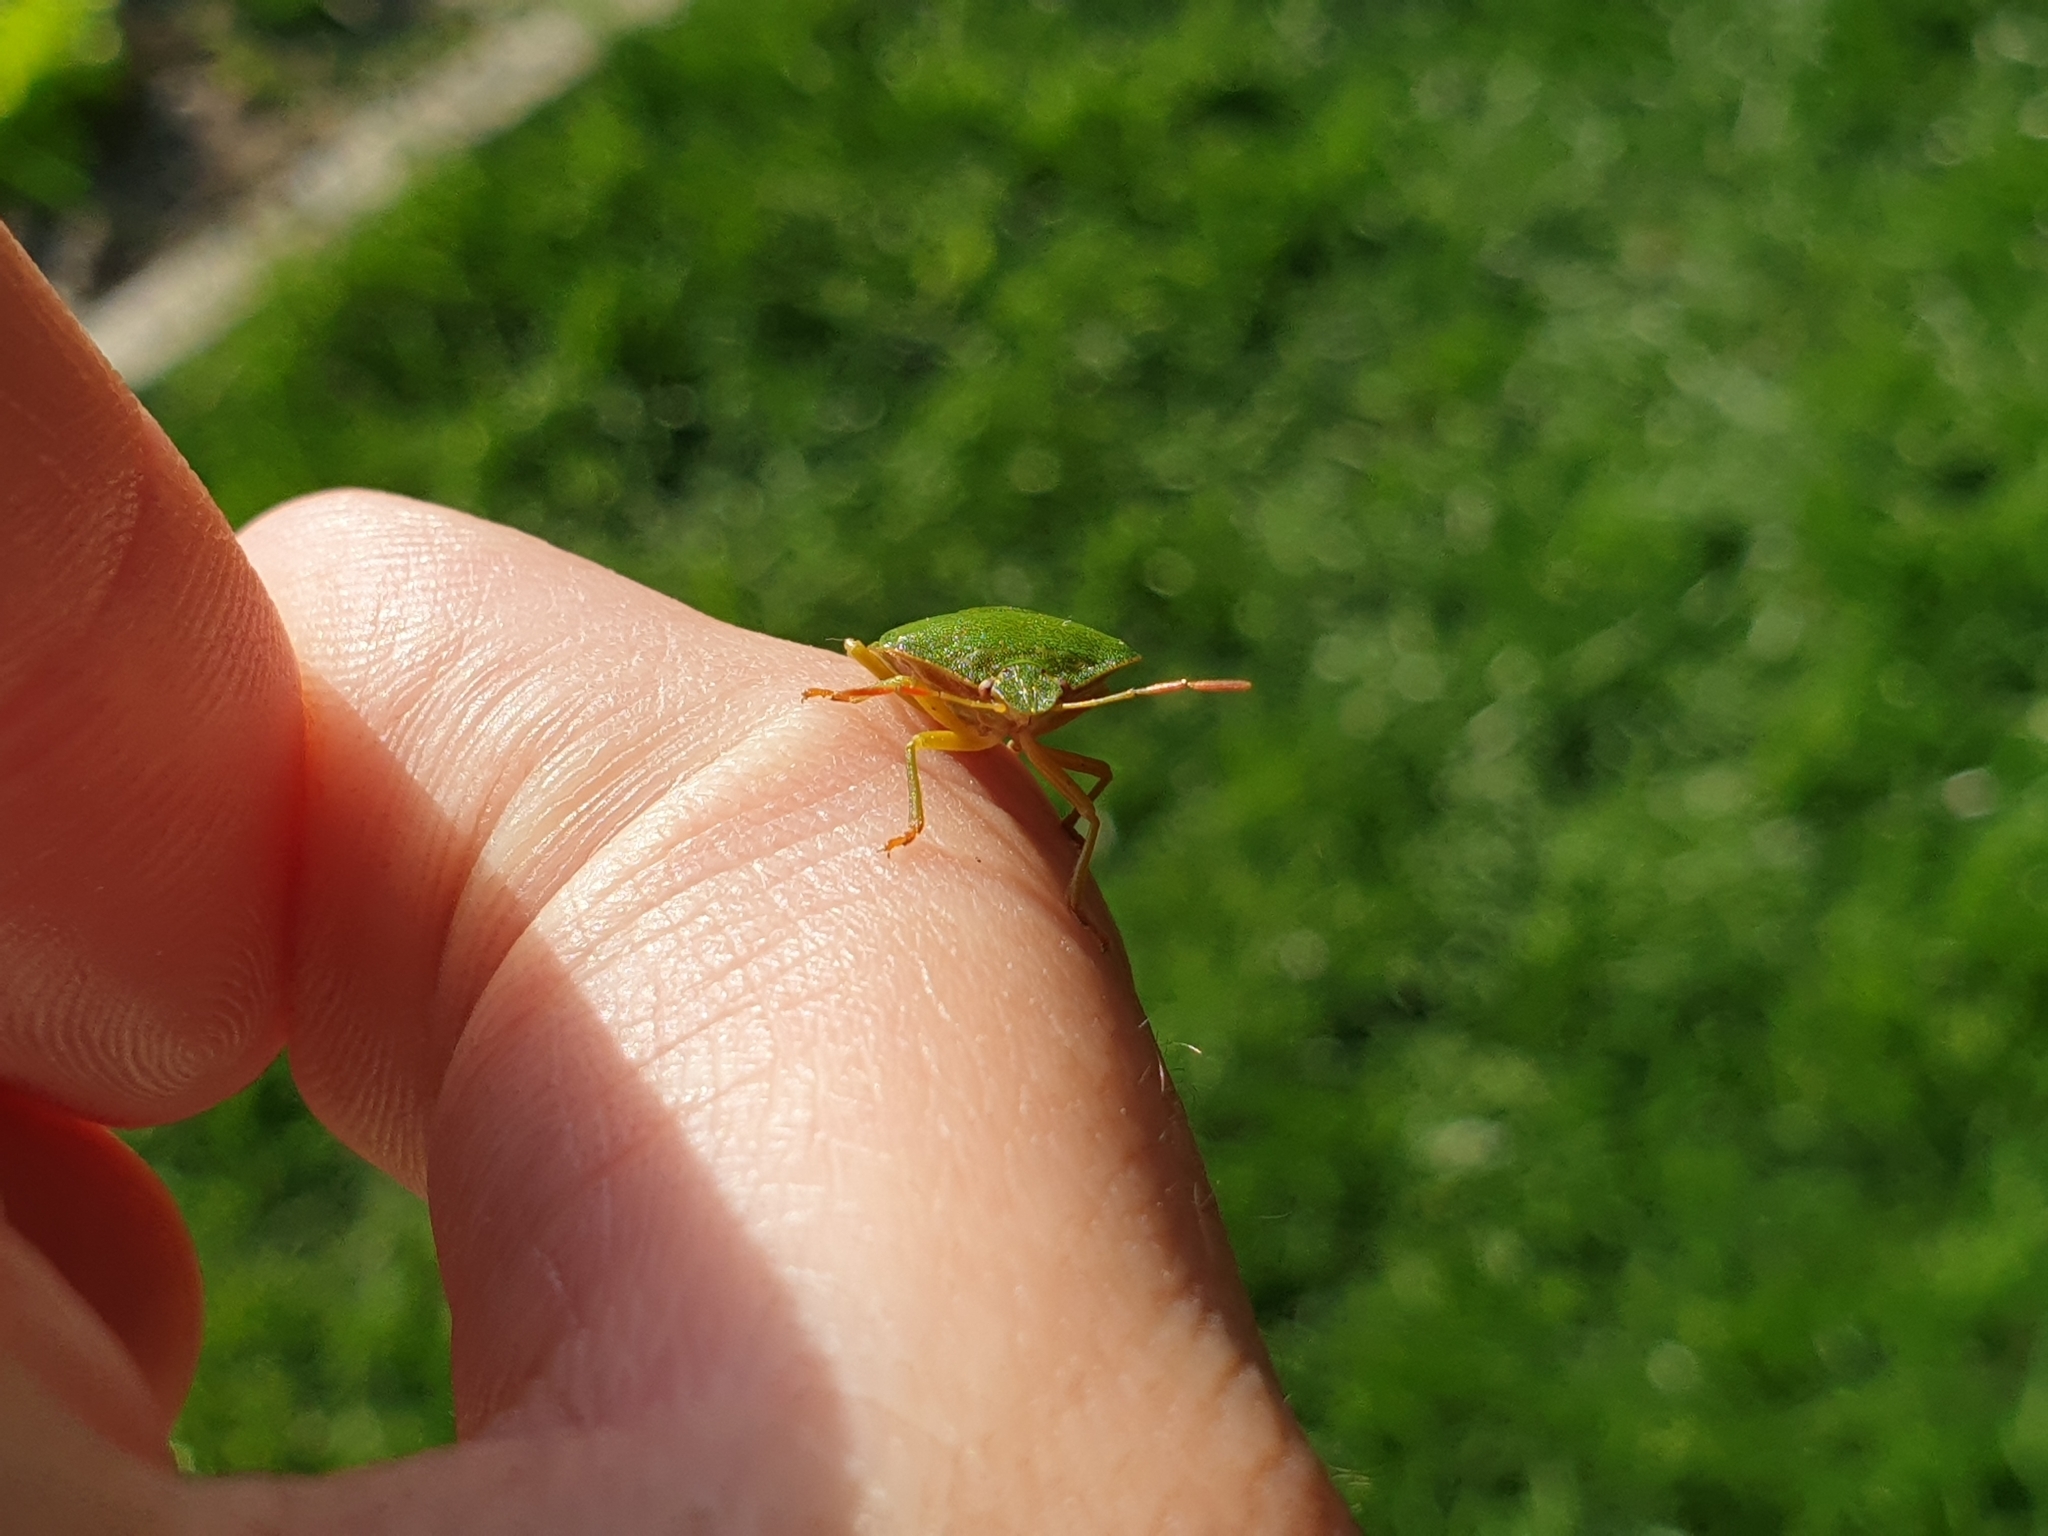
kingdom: Animalia
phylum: Arthropoda
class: Insecta
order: Hemiptera
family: Pentatomidae
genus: Palomena
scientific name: Palomena prasina
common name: Green shieldbug
